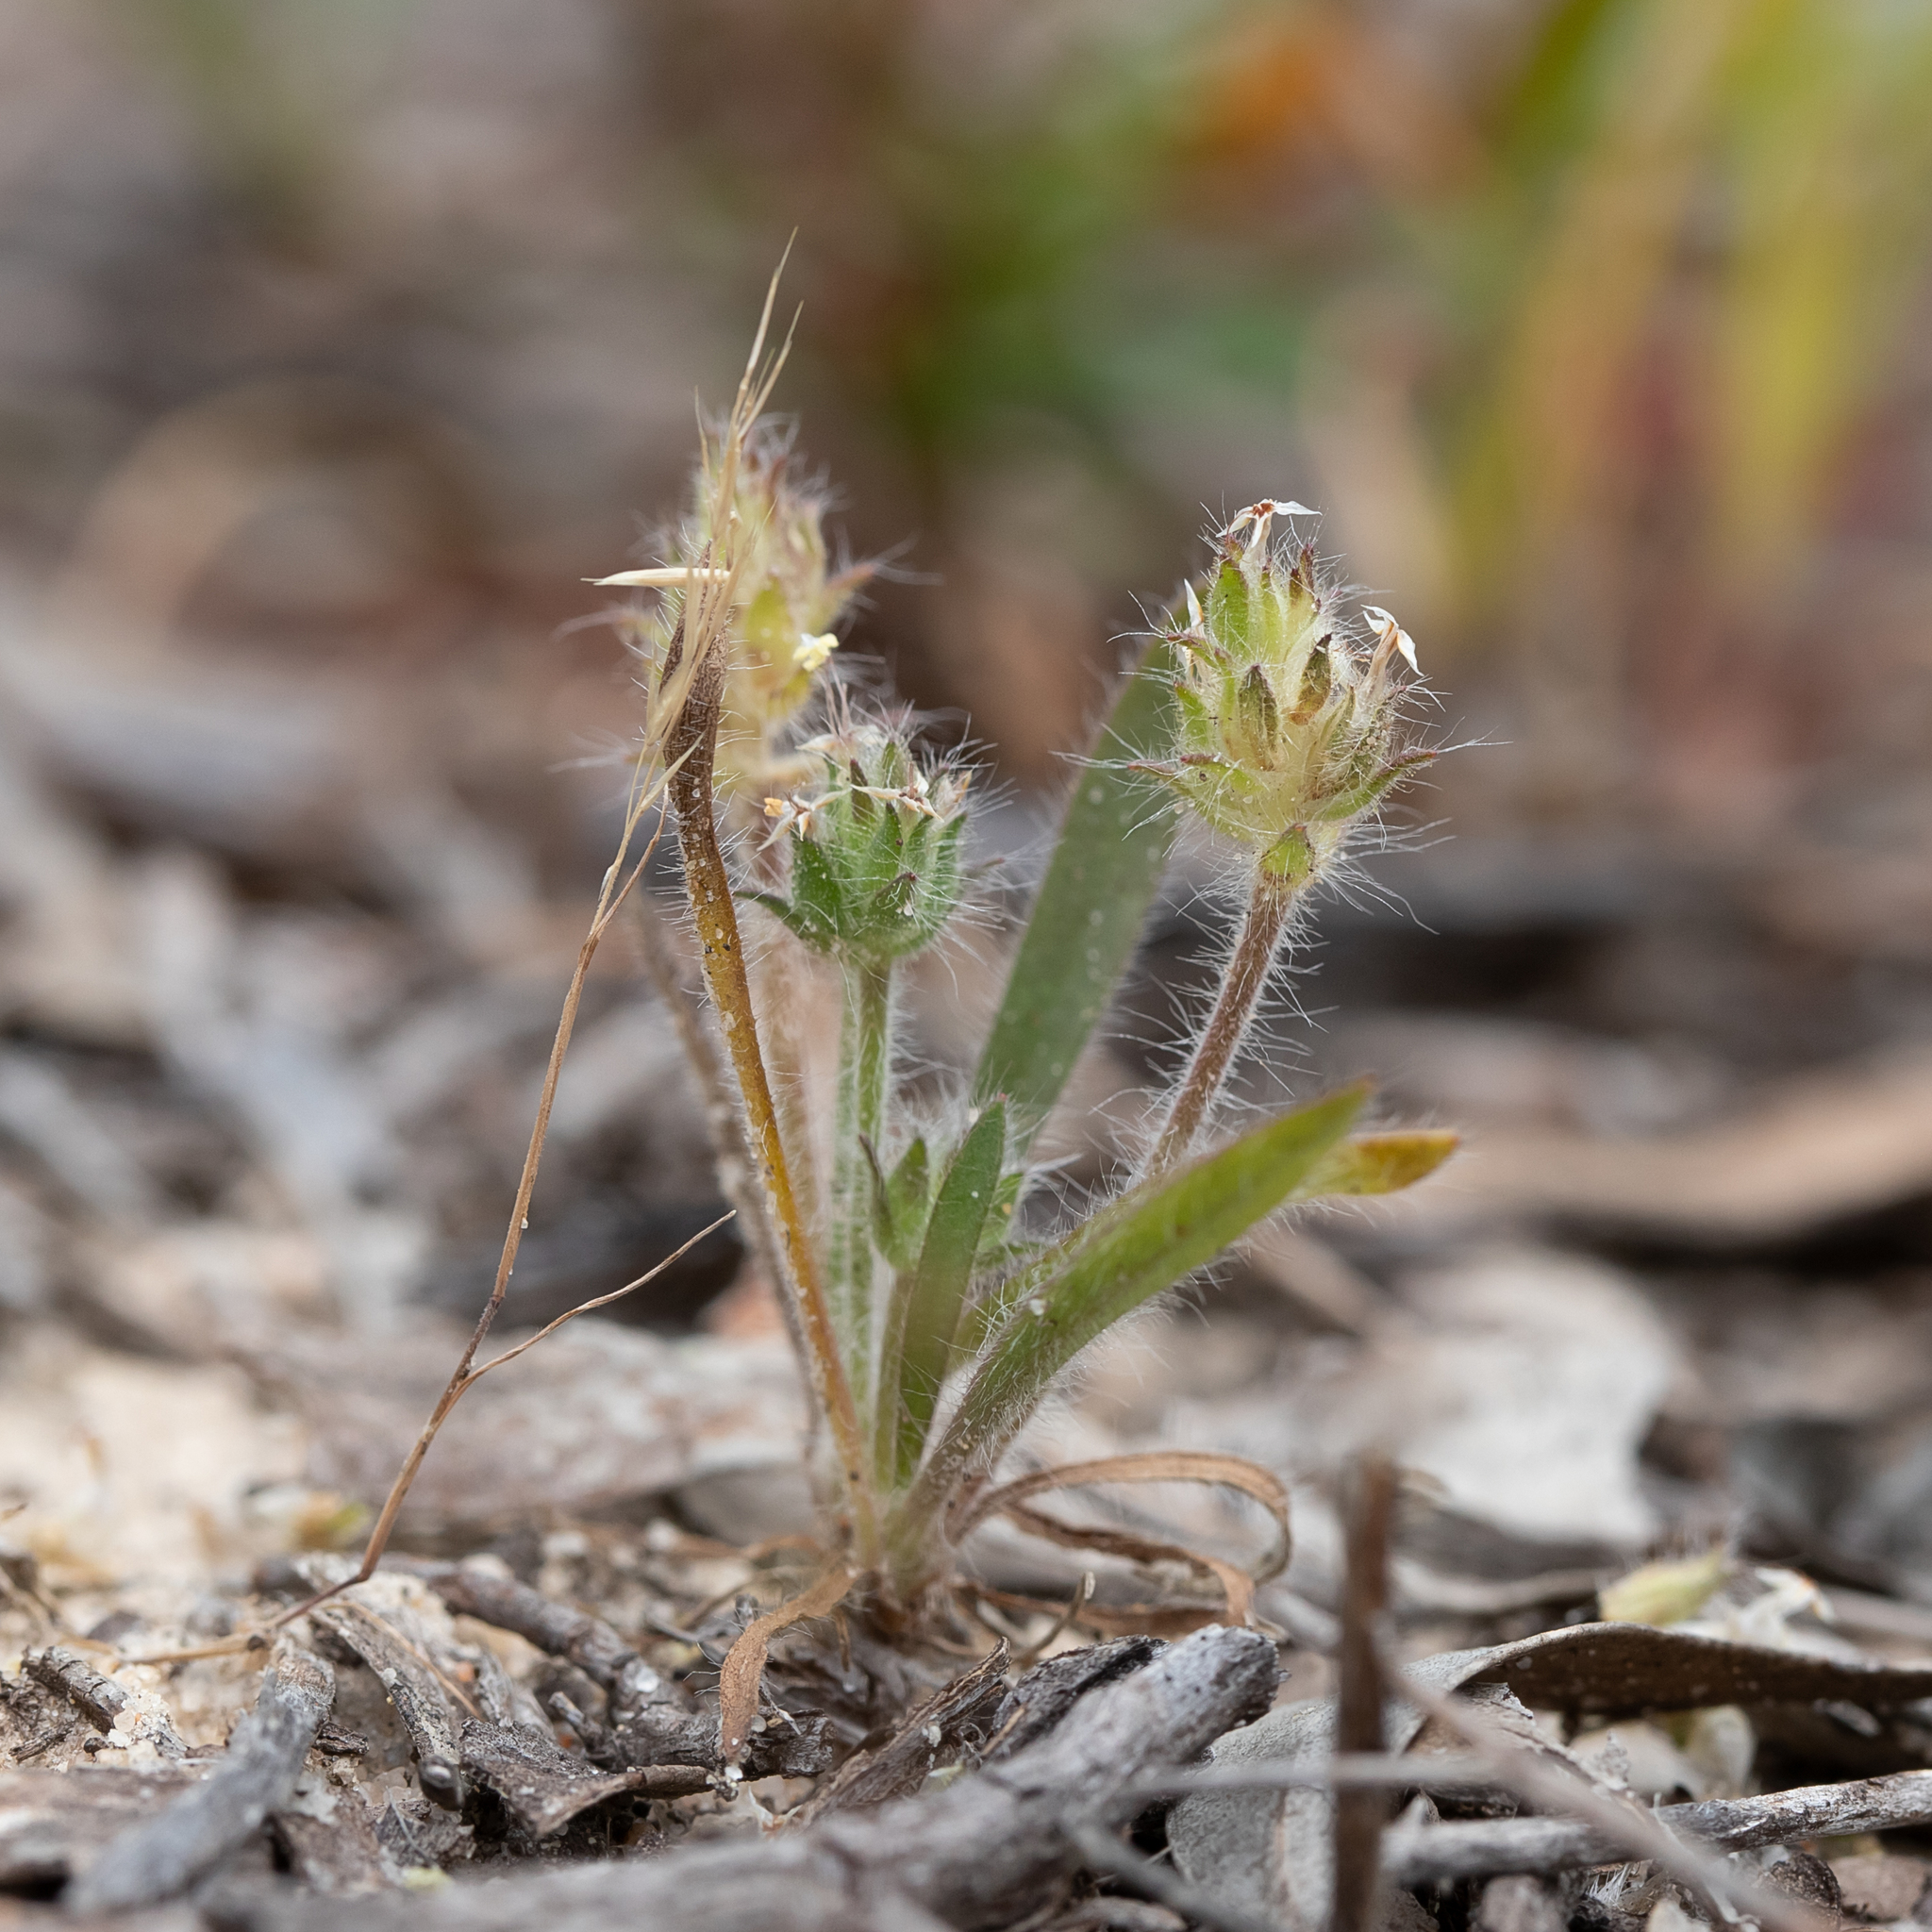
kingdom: Plantae
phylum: Tracheophyta
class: Magnoliopsida
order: Lamiales
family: Plantaginaceae
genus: Plantago
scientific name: Plantago bellardii
